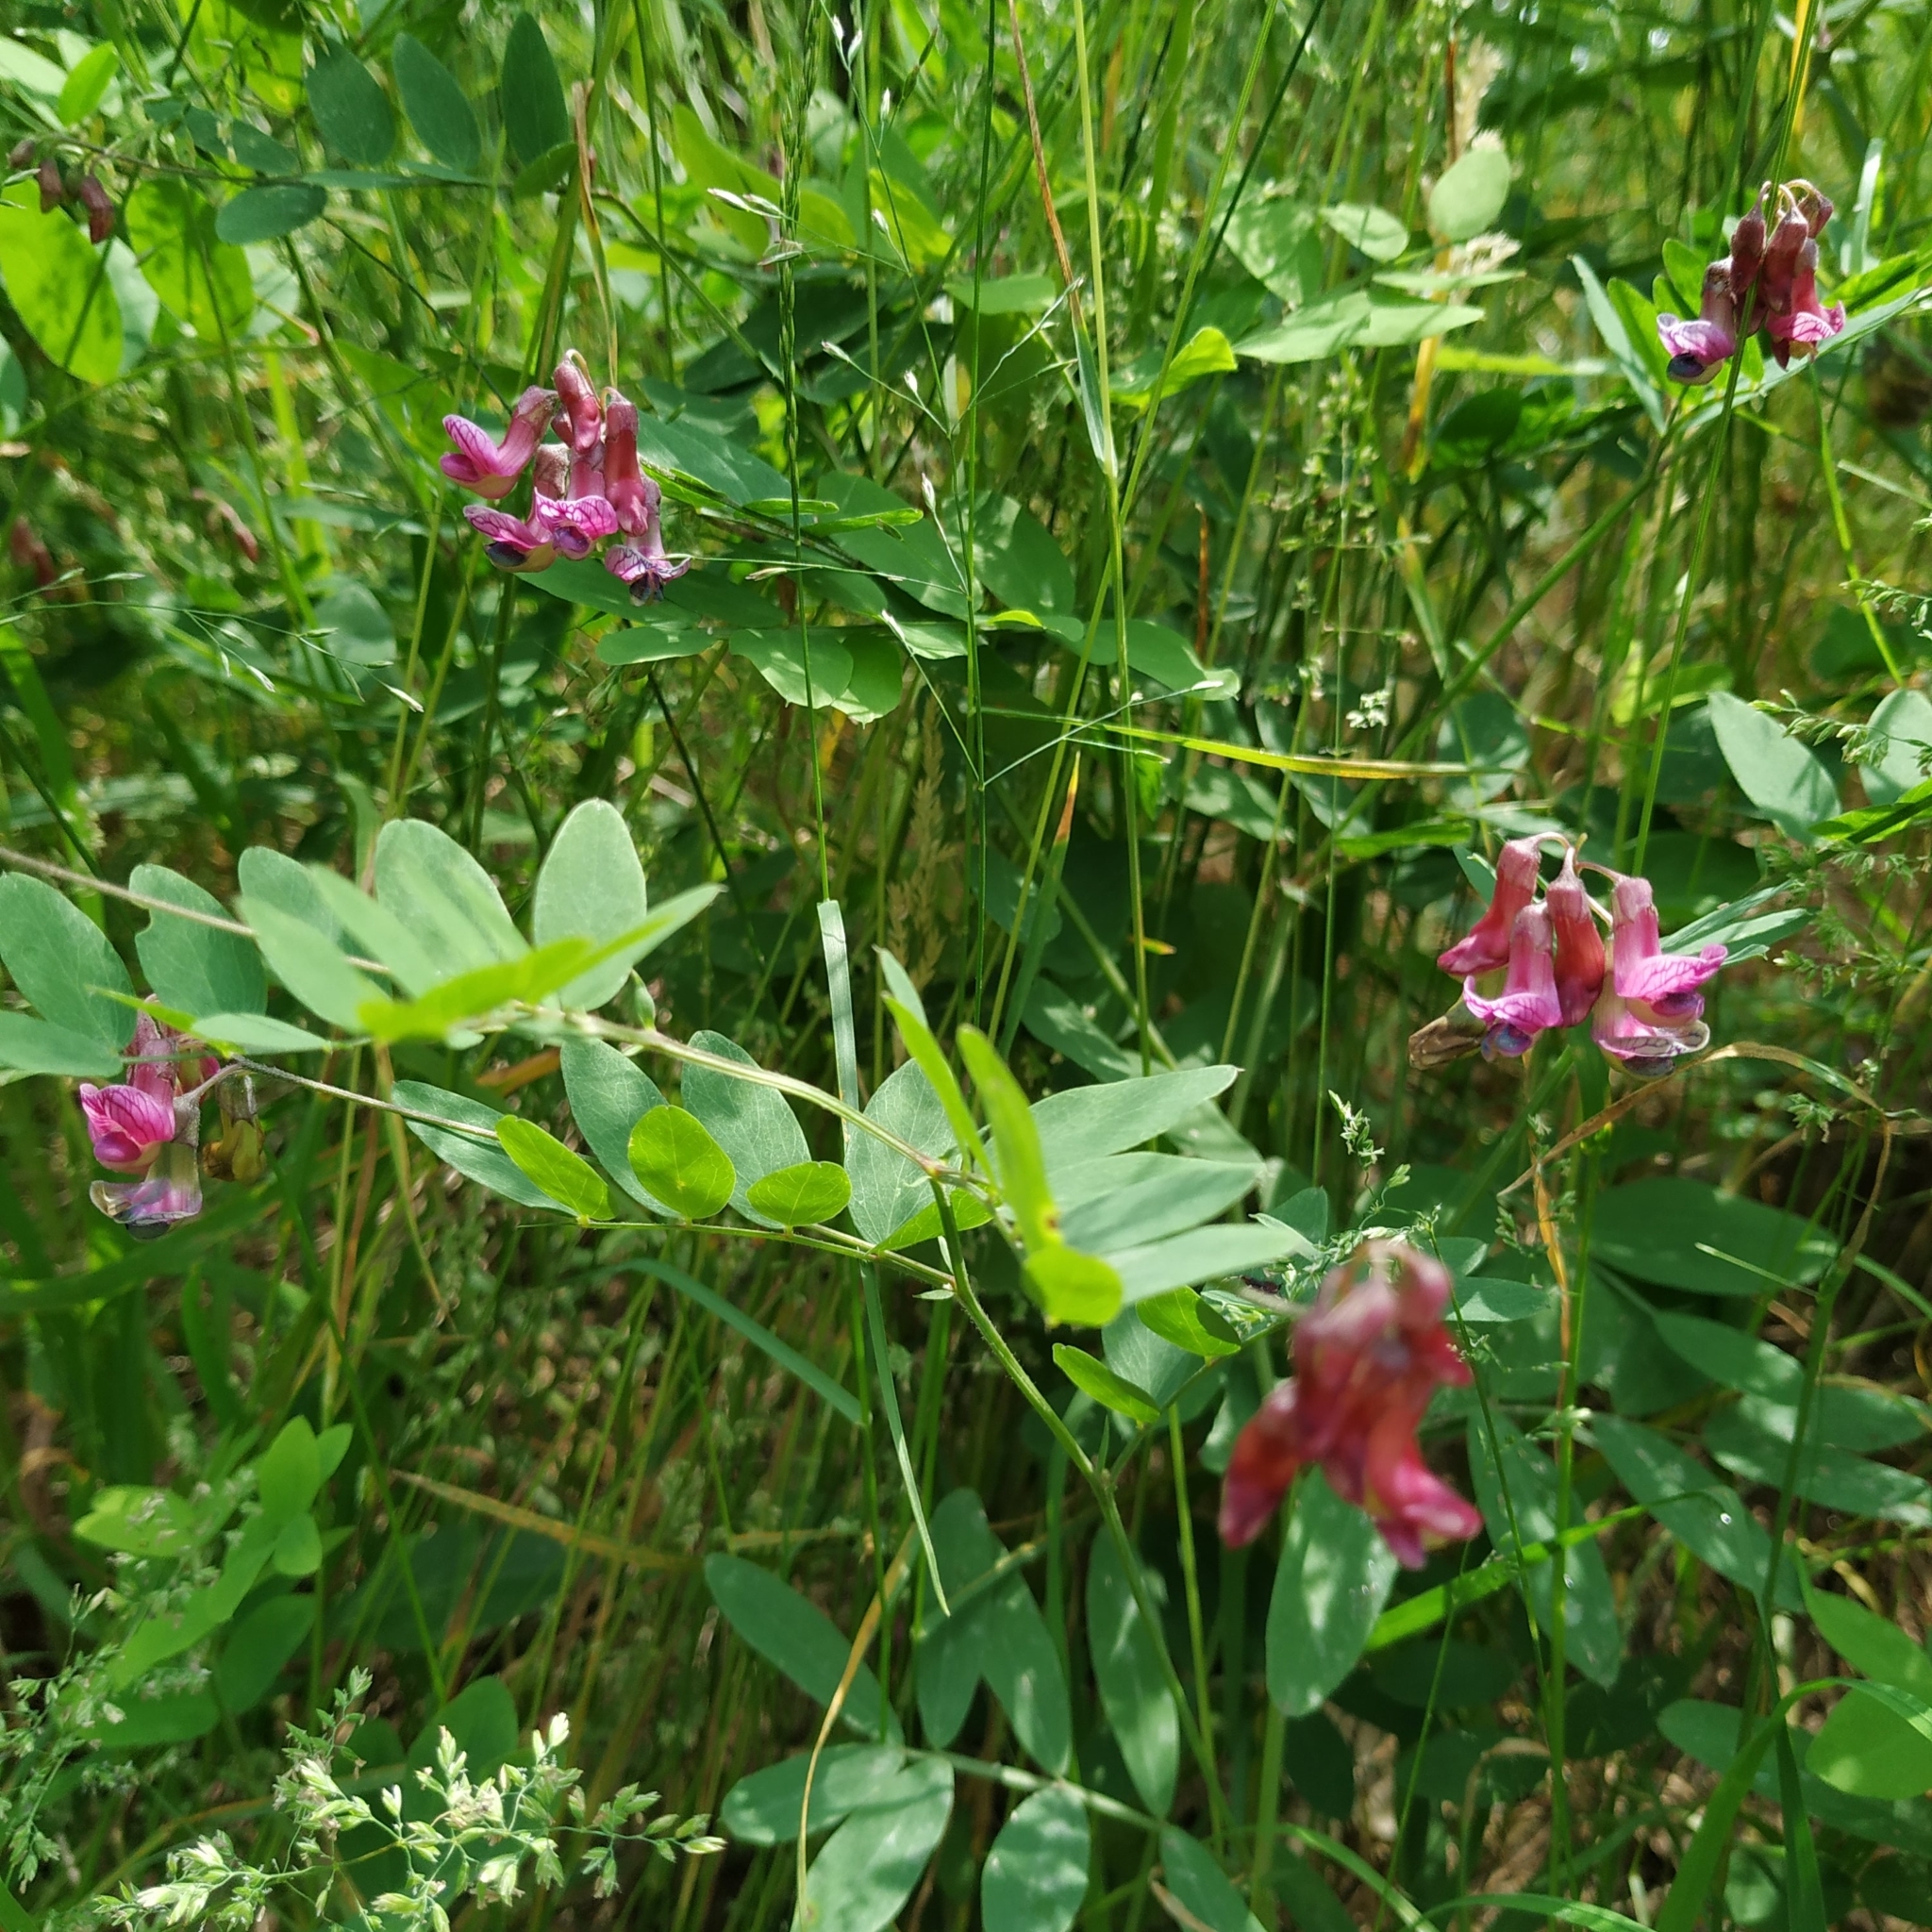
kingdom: Plantae
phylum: Tracheophyta
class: Magnoliopsida
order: Fabales
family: Fabaceae
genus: Lathyrus
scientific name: Lathyrus niger
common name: Black pea
